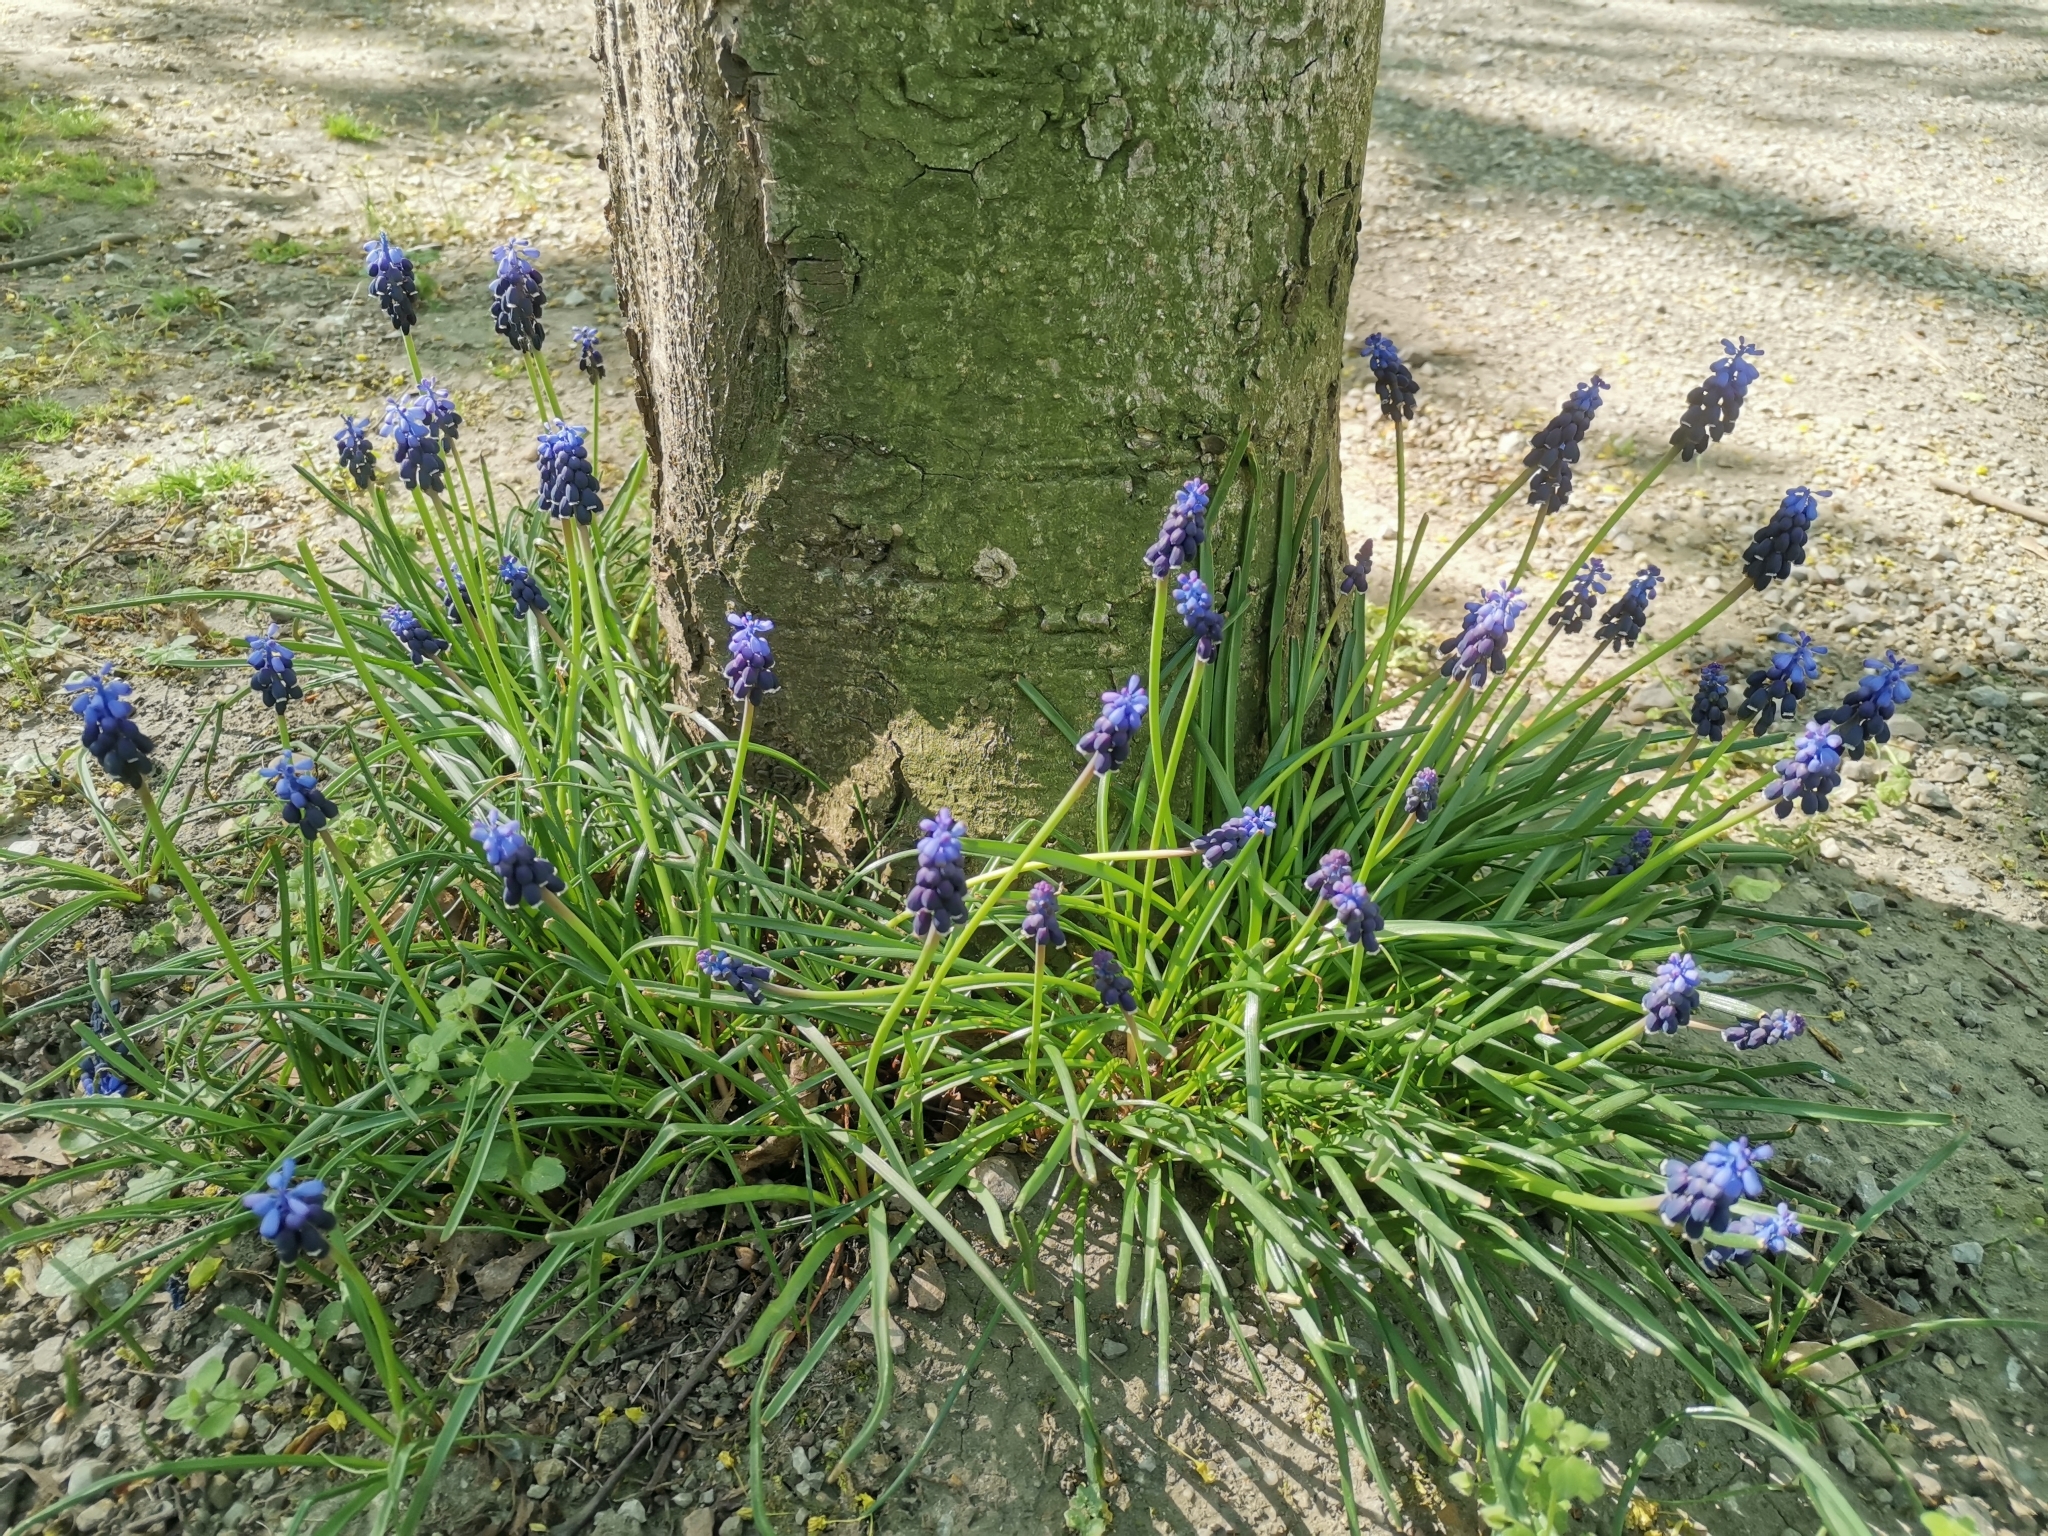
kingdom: Plantae
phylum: Tracheophyta
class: Liliopsida
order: Asparagales
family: Asparagaceae
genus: Muscari
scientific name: Muscari neglectum
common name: Grape-hyacinth
